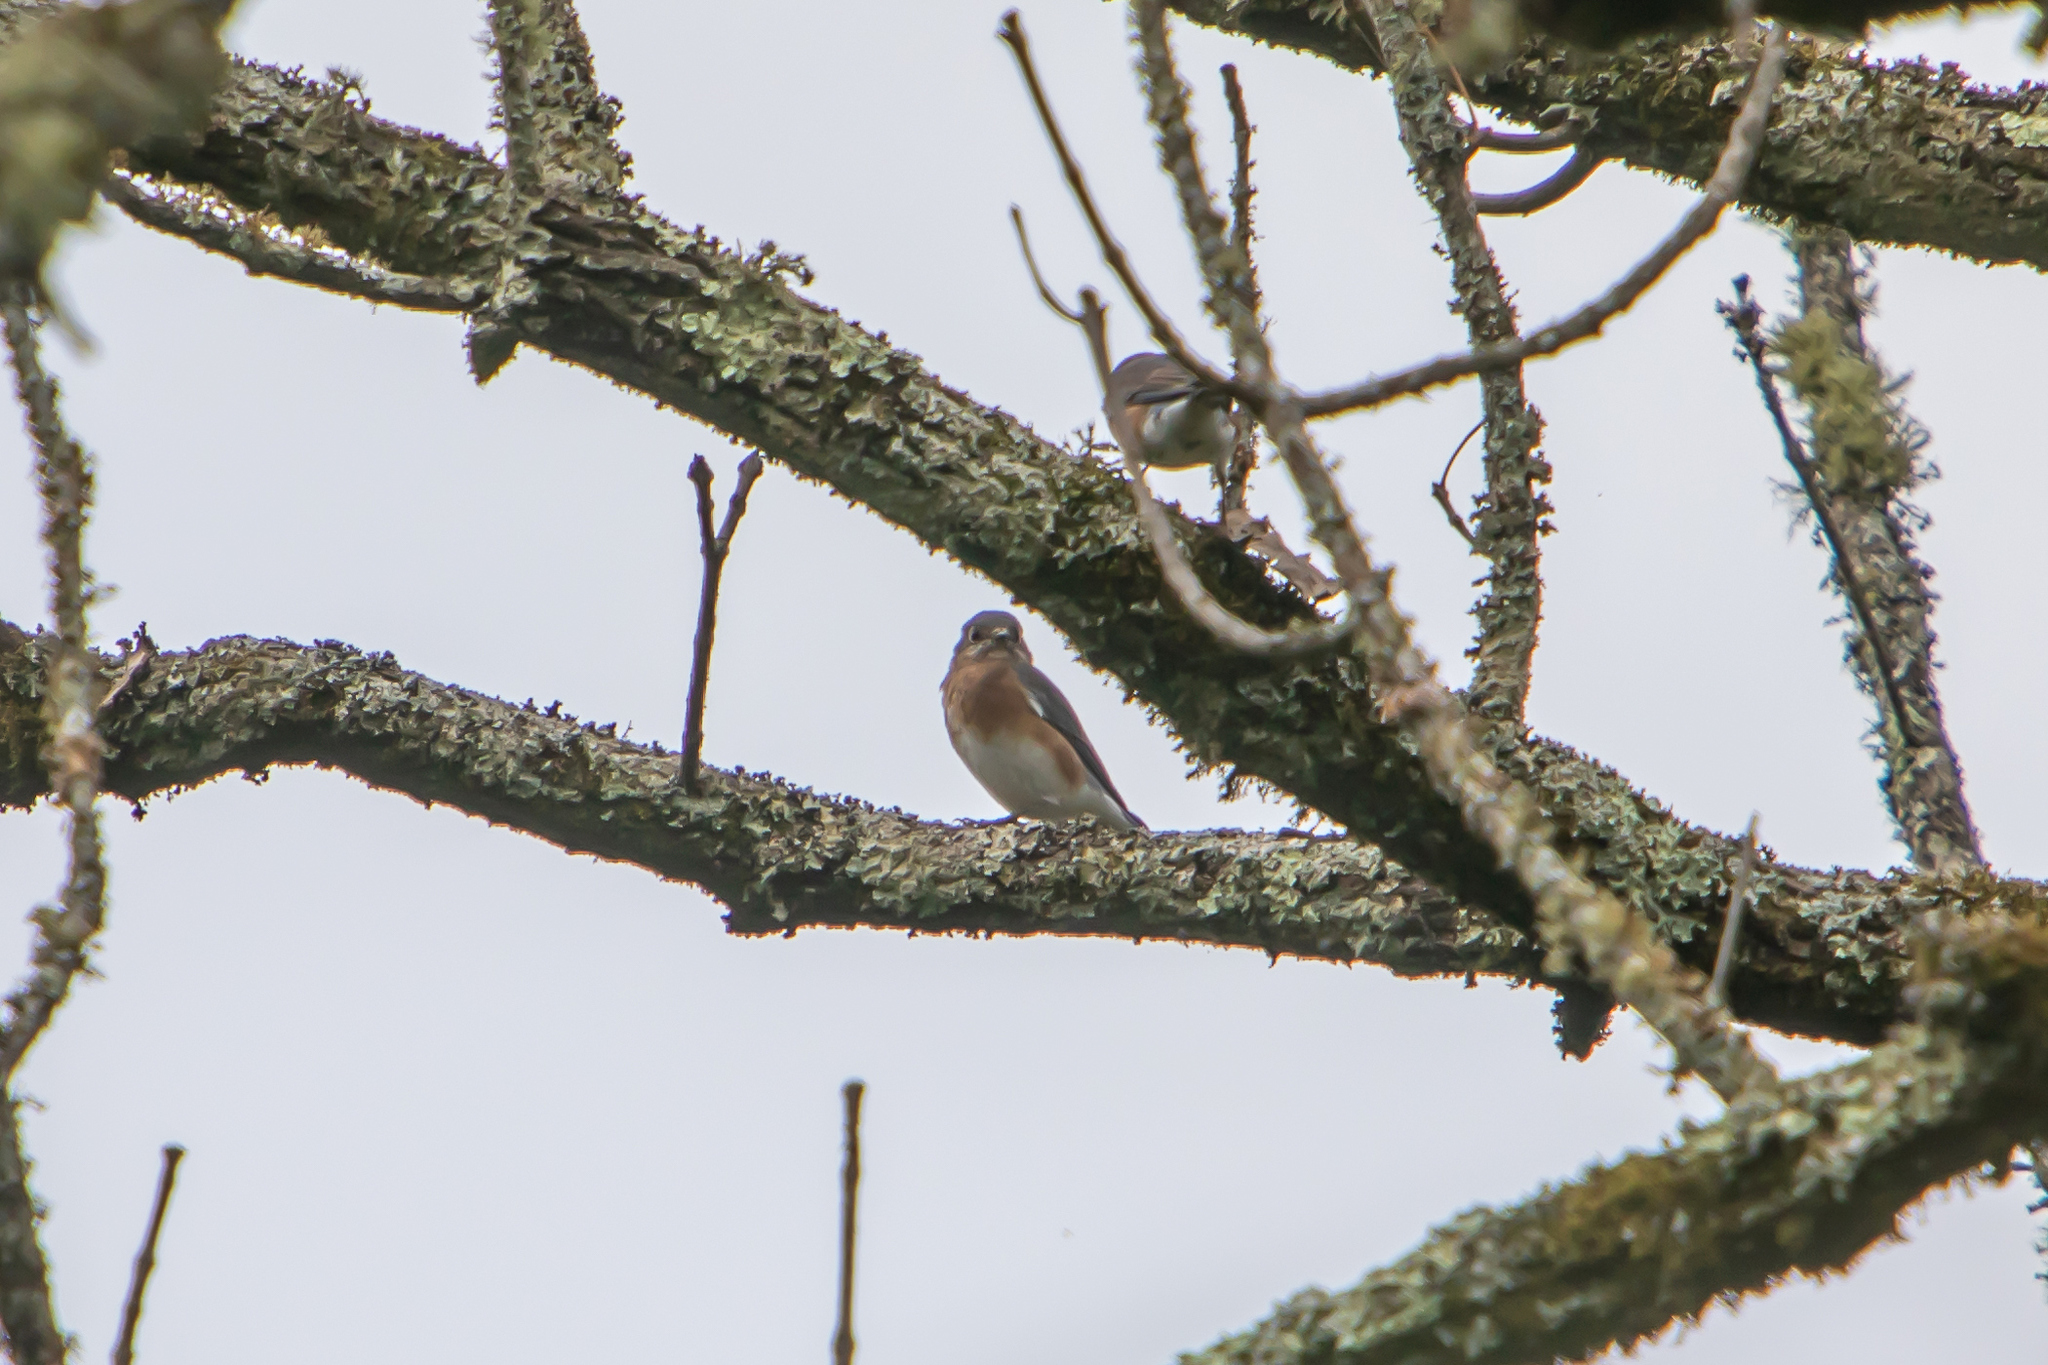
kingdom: Animalia
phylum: Chordata
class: Aves
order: Passeriformes
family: Turdidae
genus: Sialia
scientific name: Sialia sialis
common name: Eastern bluebird
